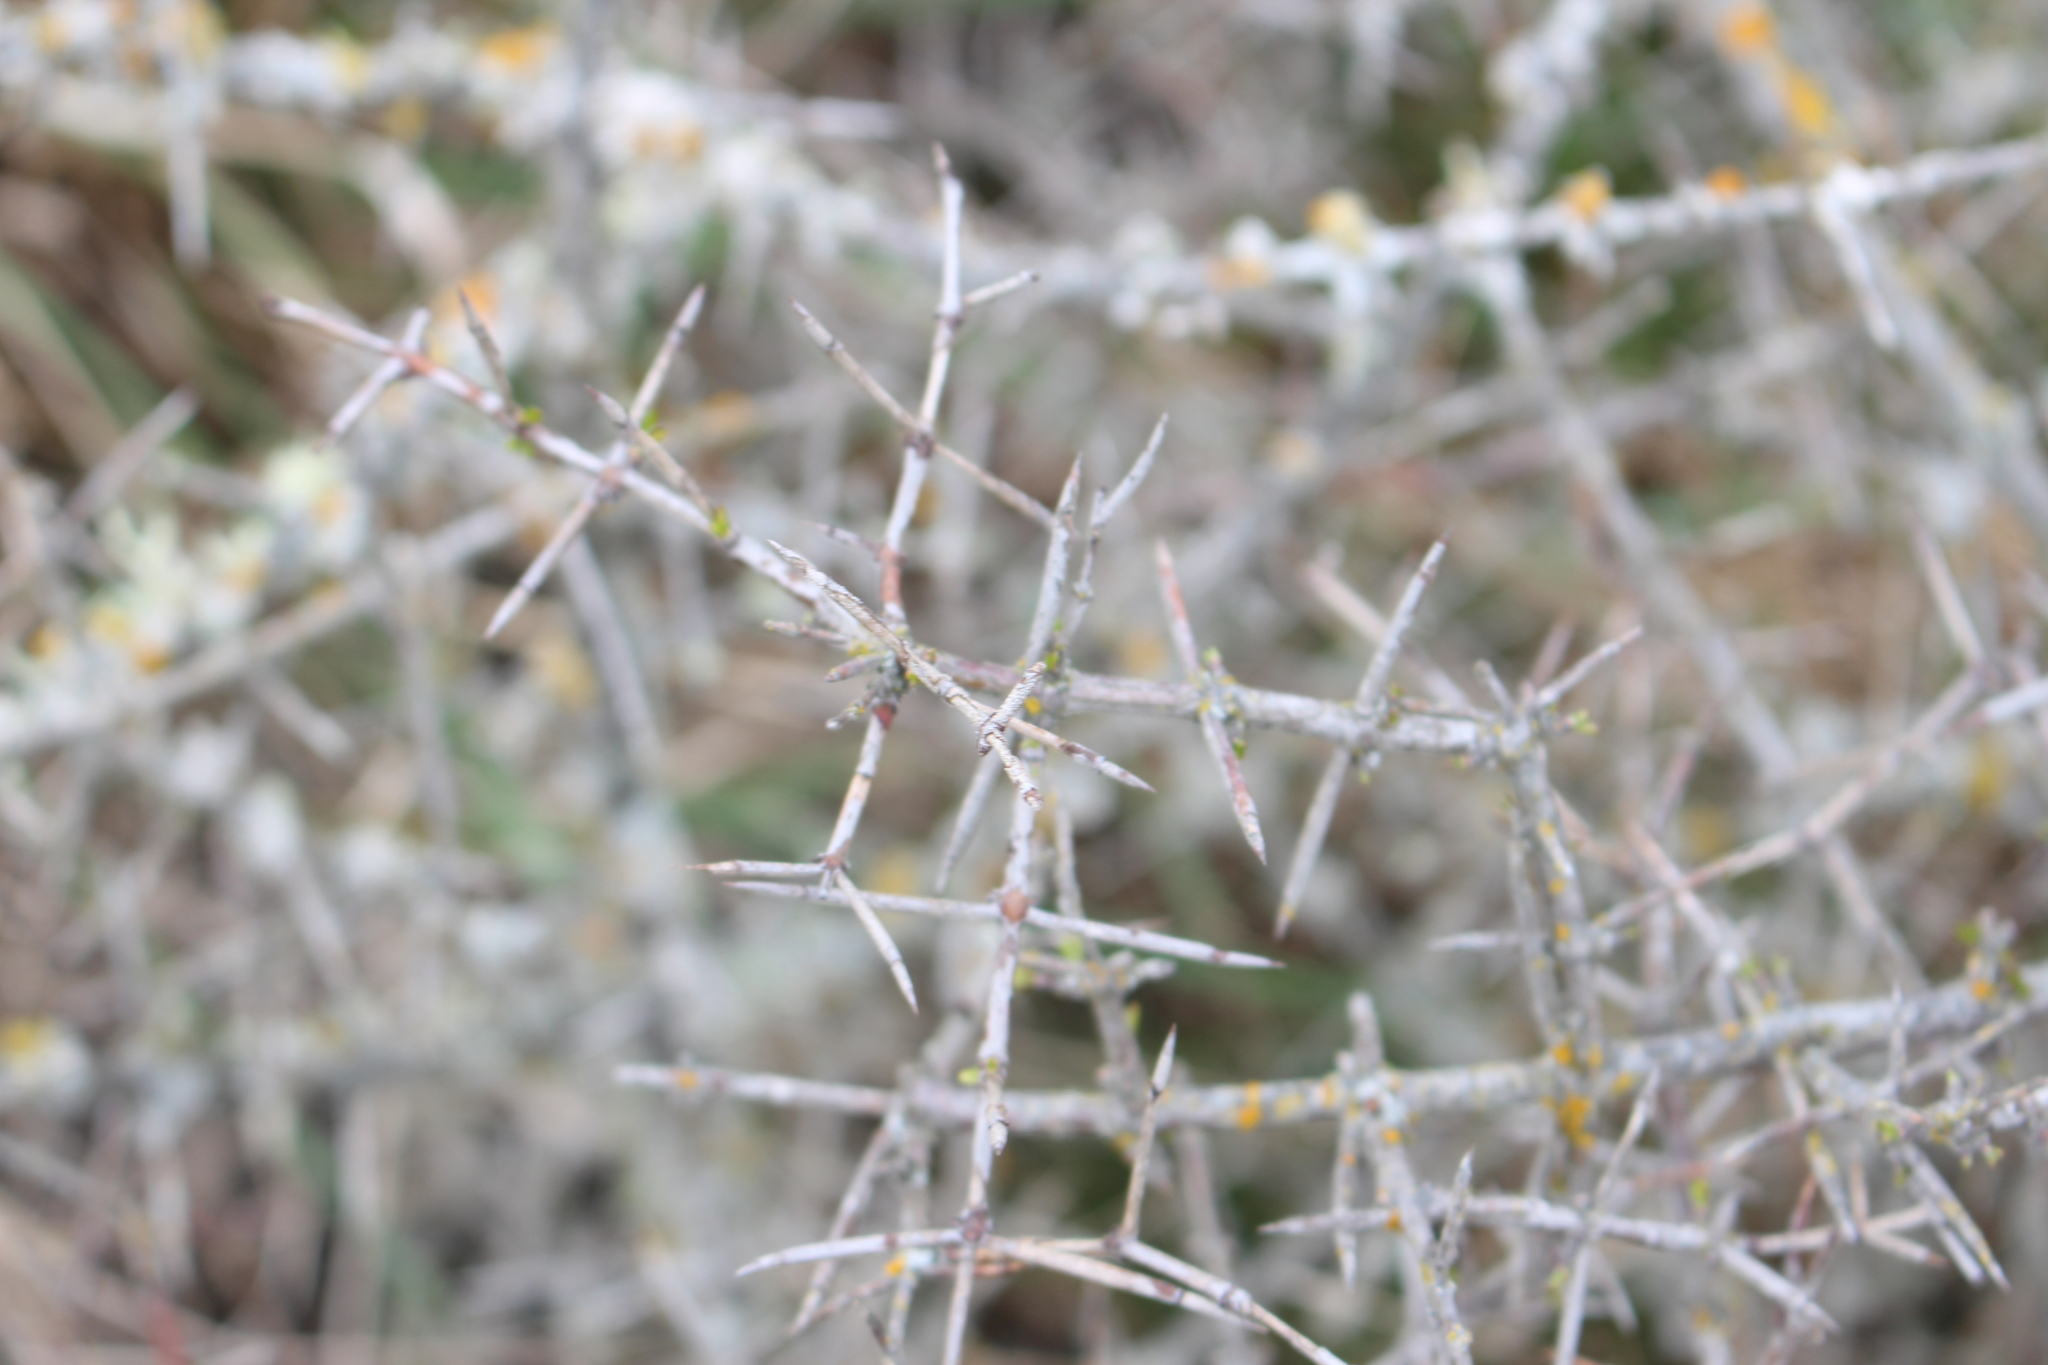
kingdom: Plantae
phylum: Tracheophyta
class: Magnoliopsida
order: Rosales
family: Rhamnaceae
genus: Discaria
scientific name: Discaria toumatou
